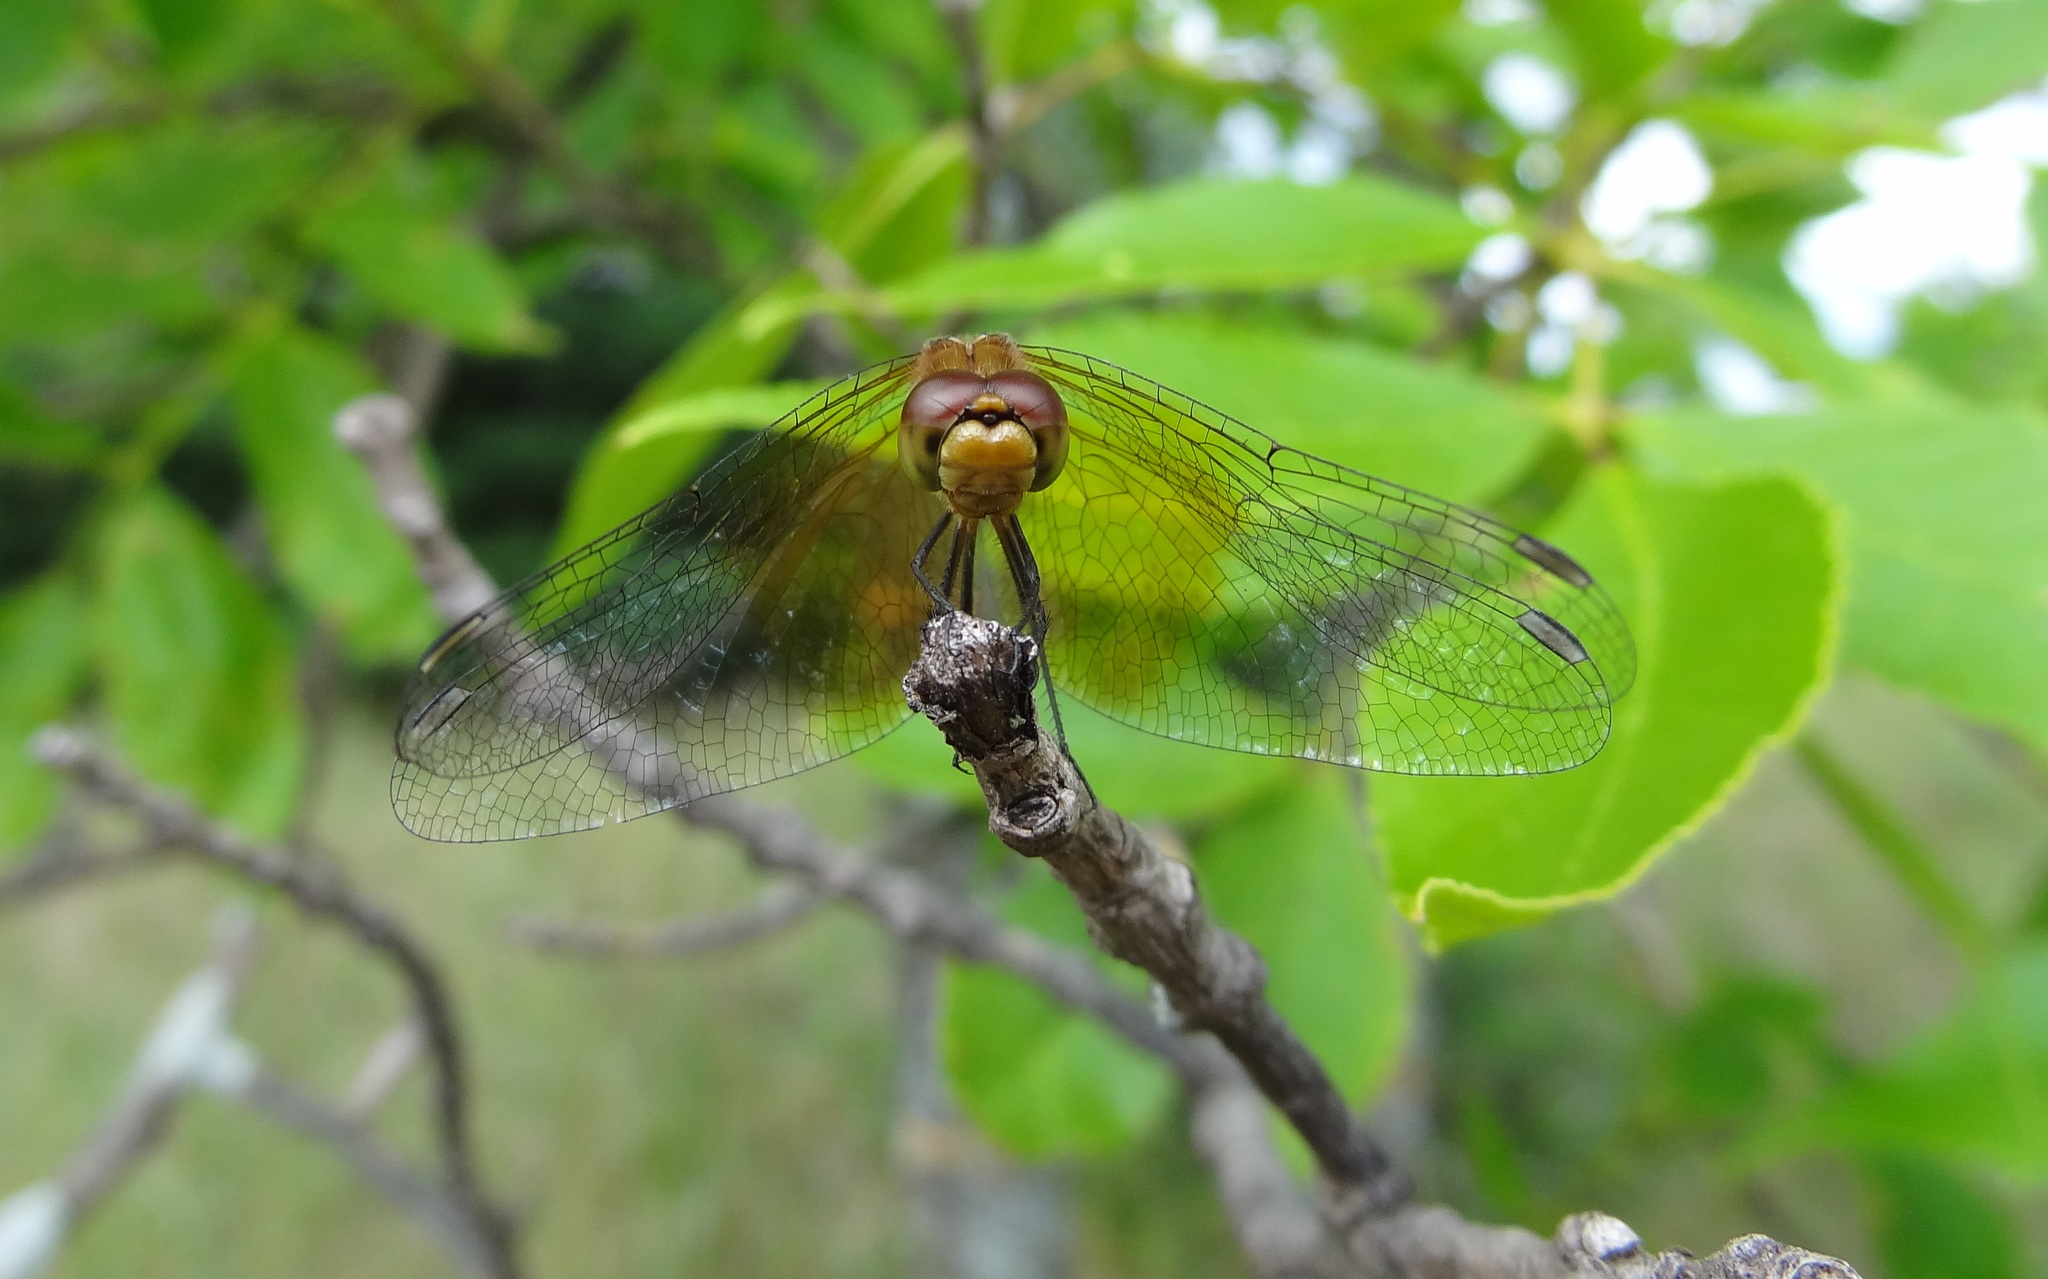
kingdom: Animalia
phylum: Arthropoda
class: Insecta
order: Odonata
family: Libellulidae
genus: Sympetrum
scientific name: Sympetrum semicinctum
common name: Band-winged meadowhawk
